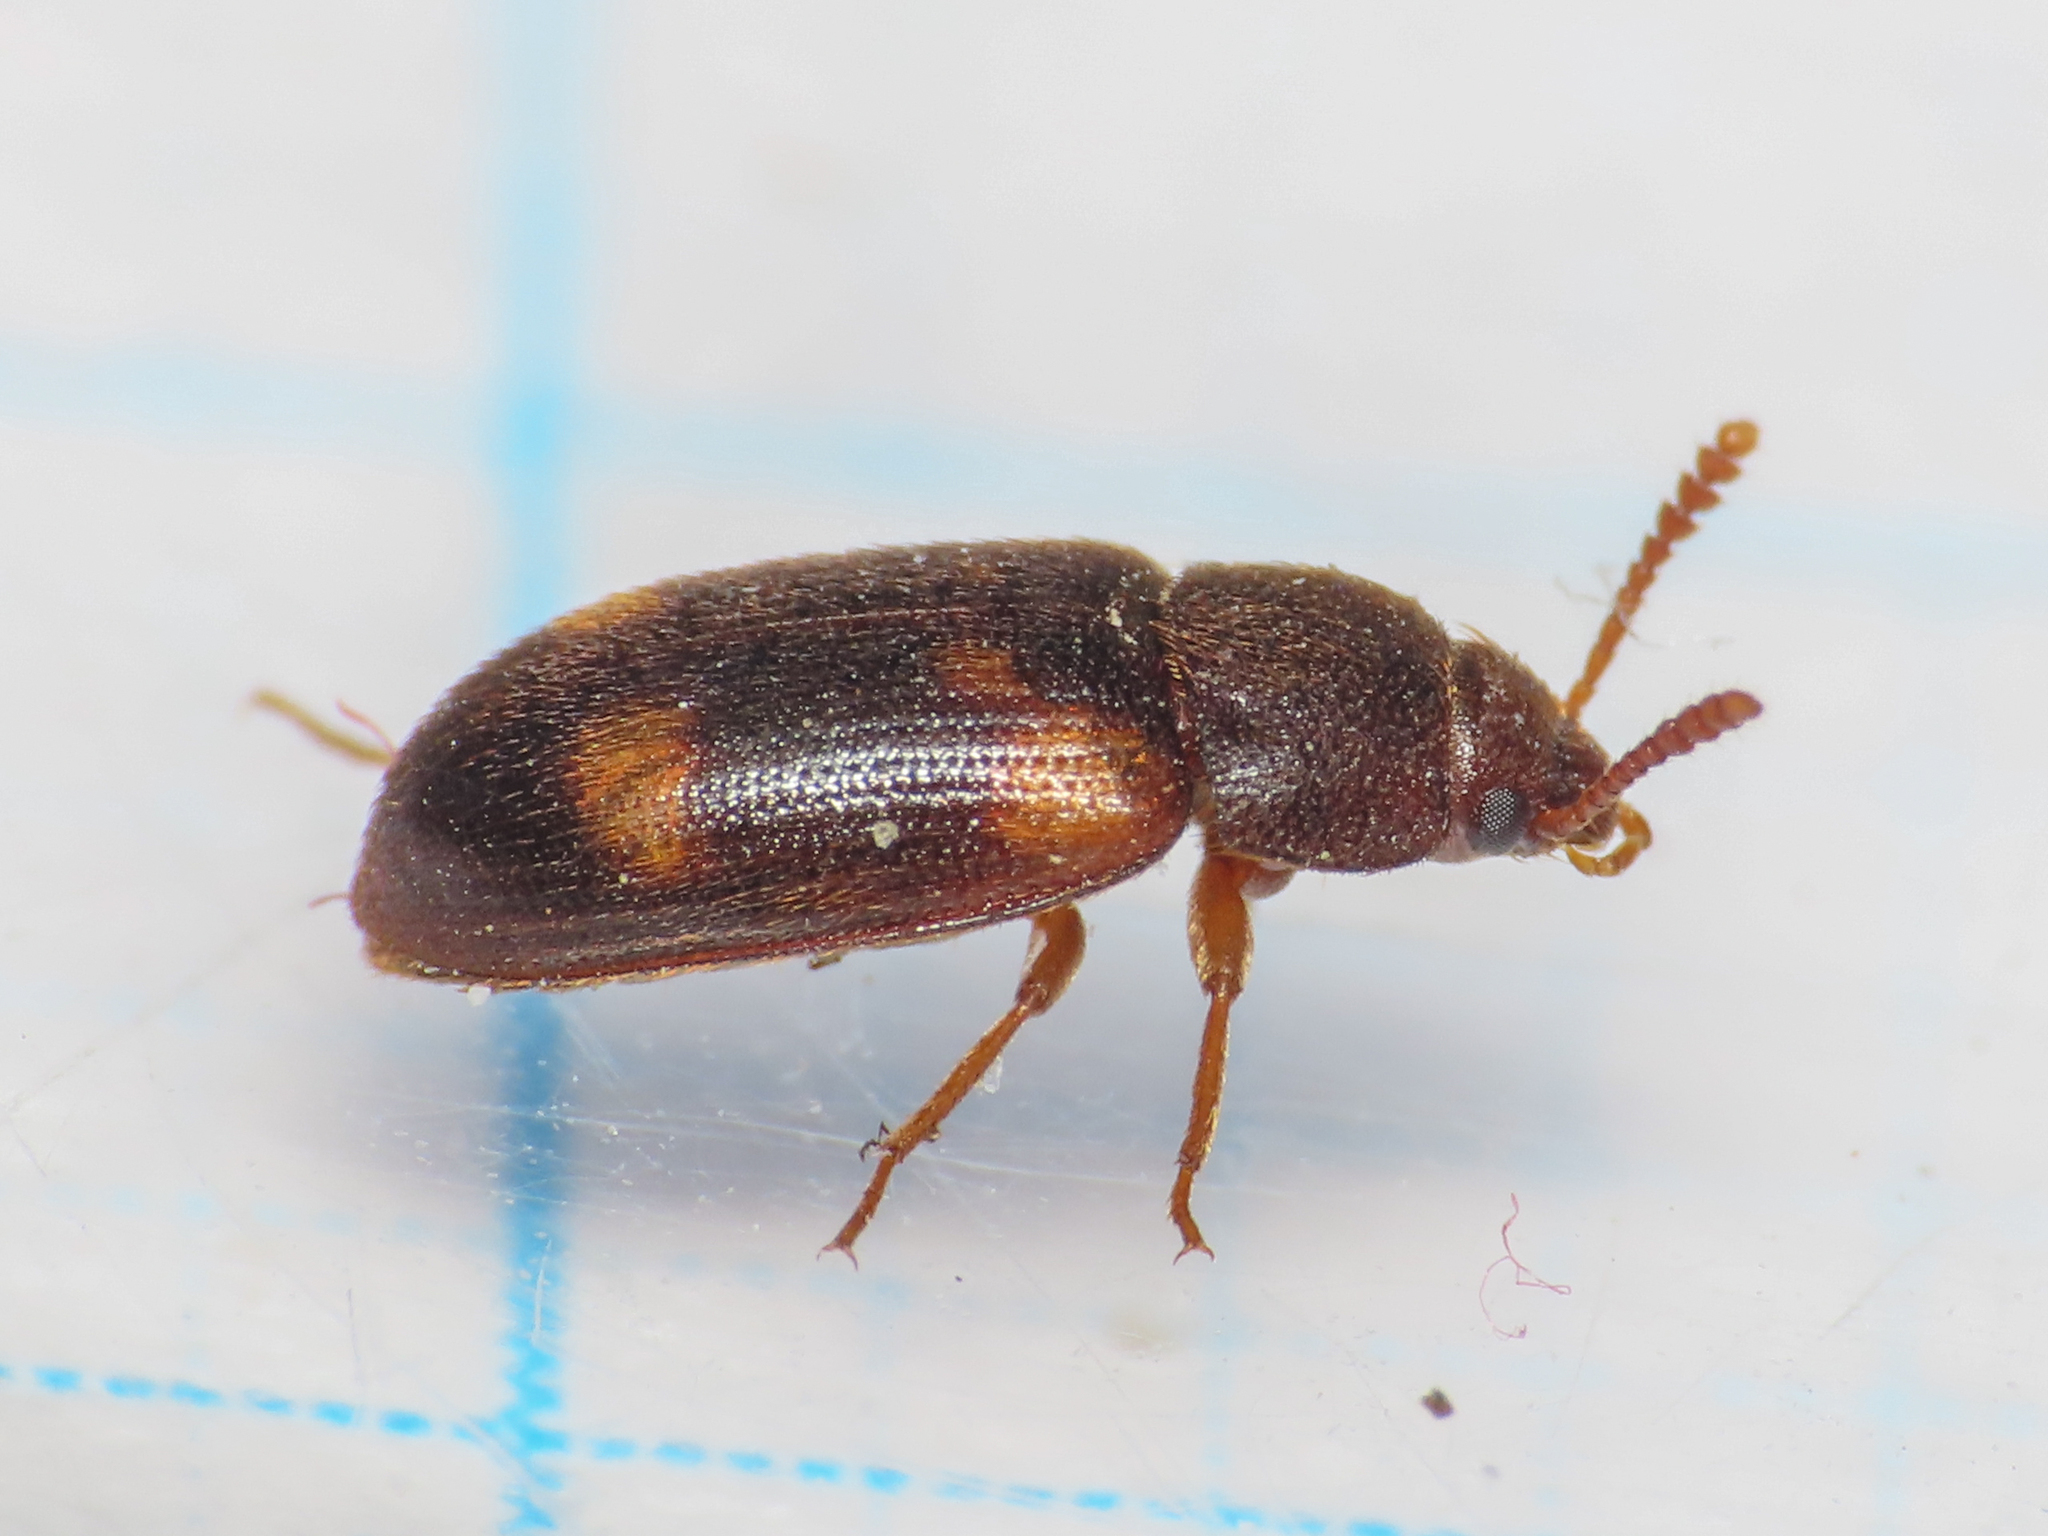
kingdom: Animalia
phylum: Arthropoda
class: Insecta
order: Coleoptera
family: Mycetophagidae
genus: Mycetophagus
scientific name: Mycetophagus quadriguttatus
